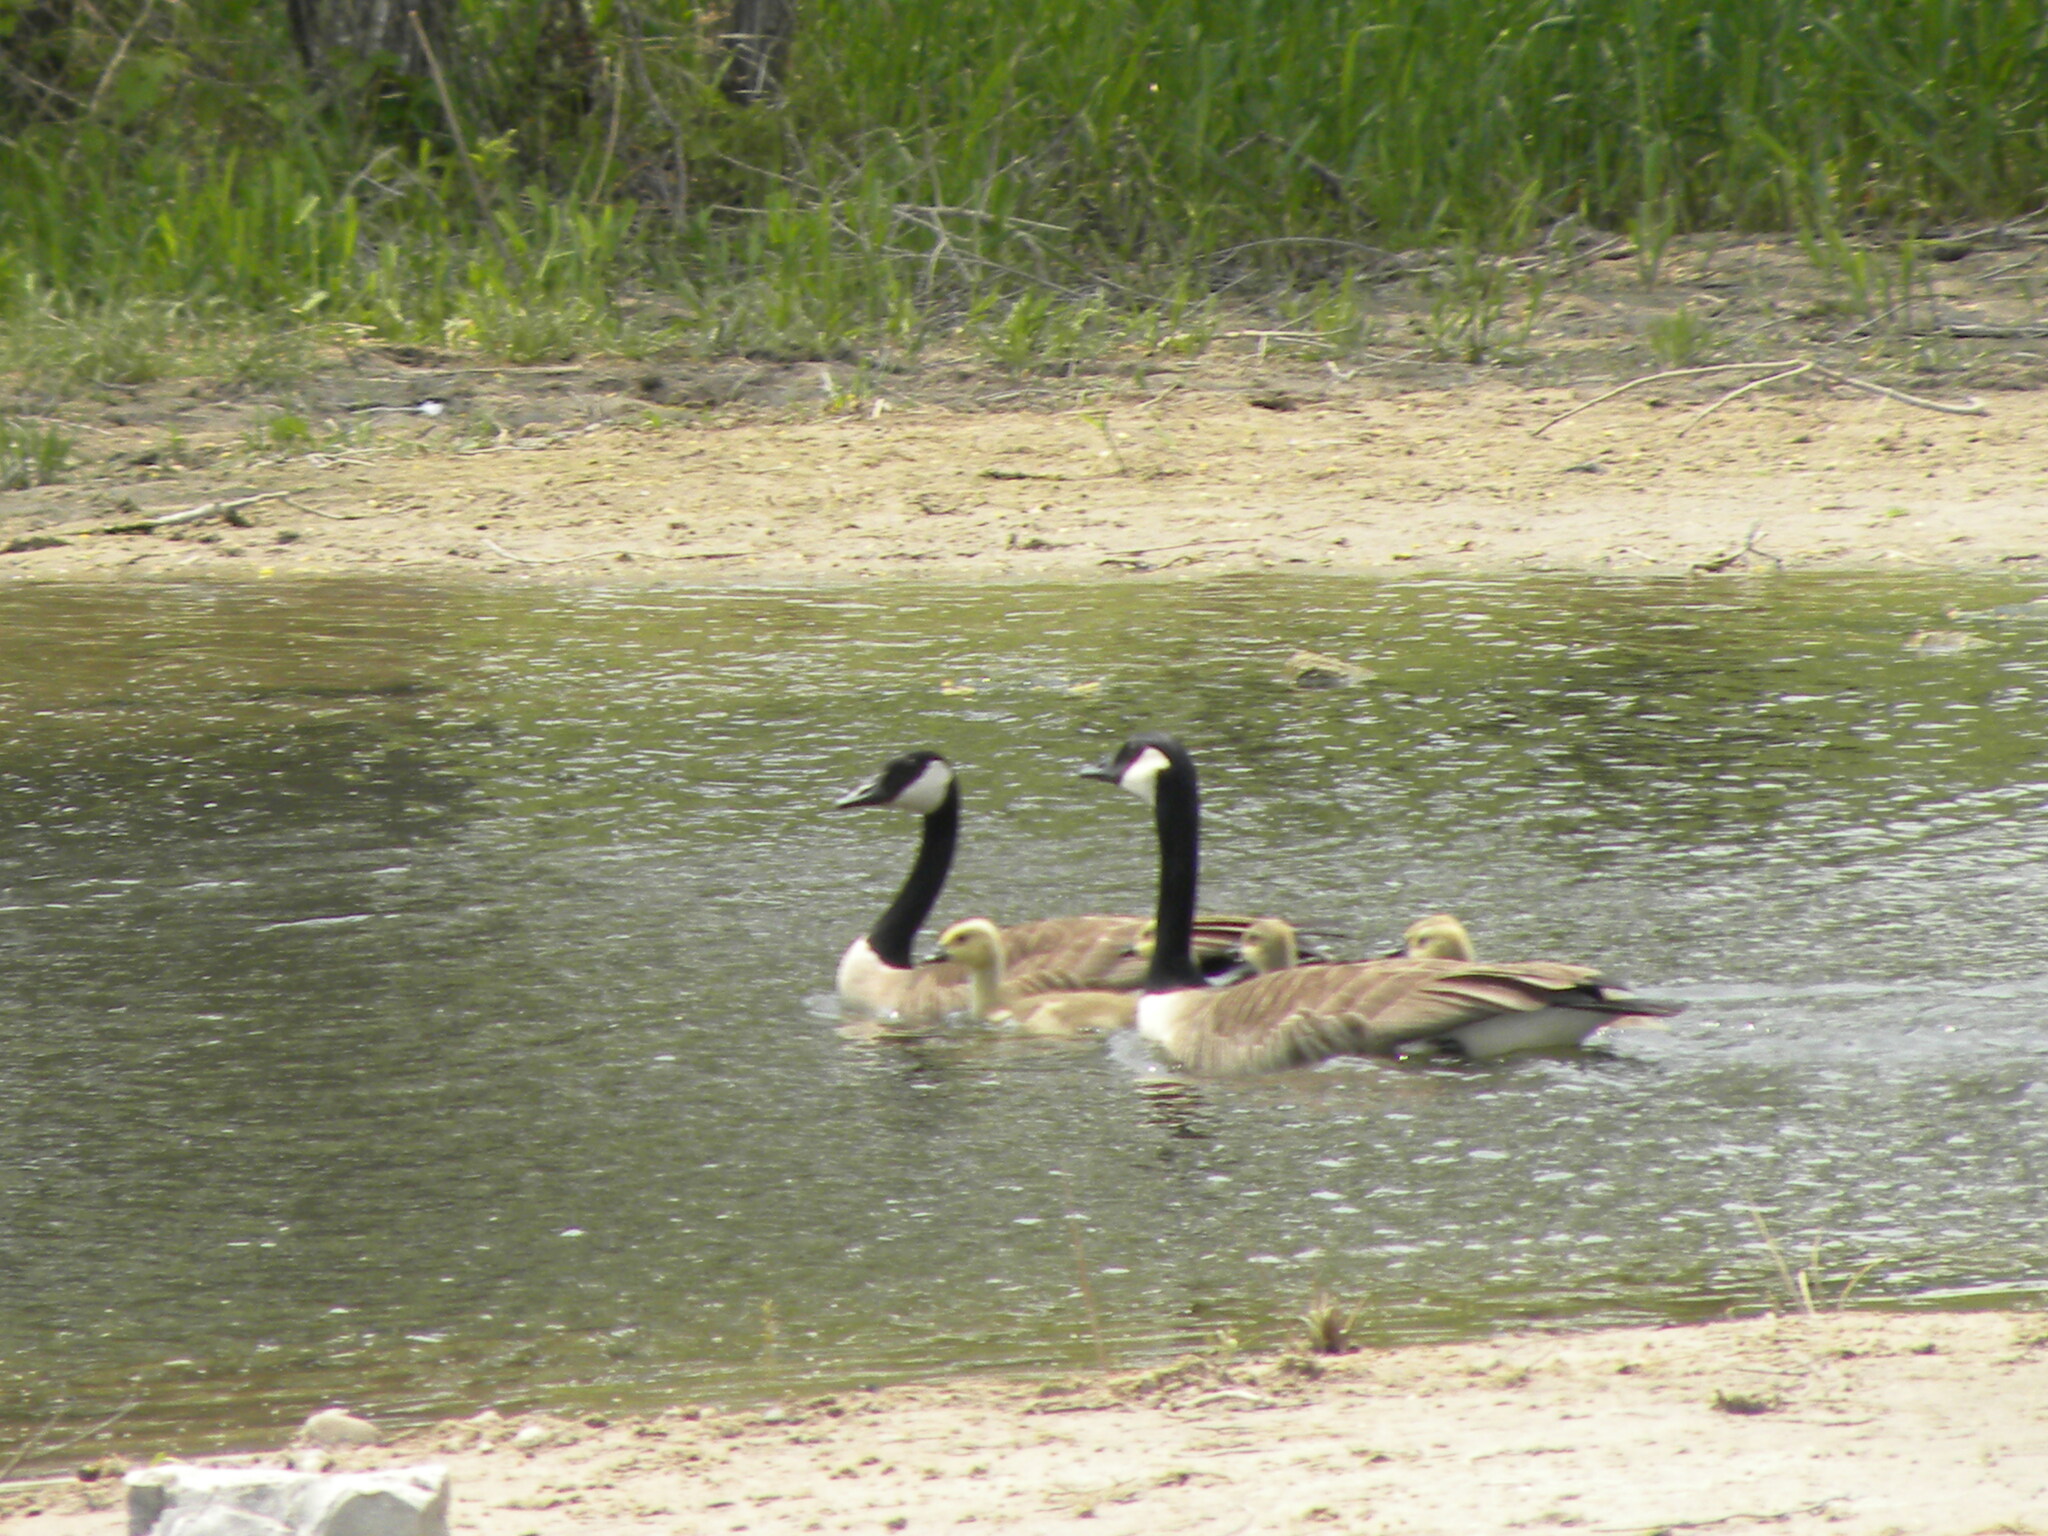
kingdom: Animalia
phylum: Chordata
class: Aves
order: Anseriformes
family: Anatidae
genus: Branta
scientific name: Branta canadensis
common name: Canada goose
